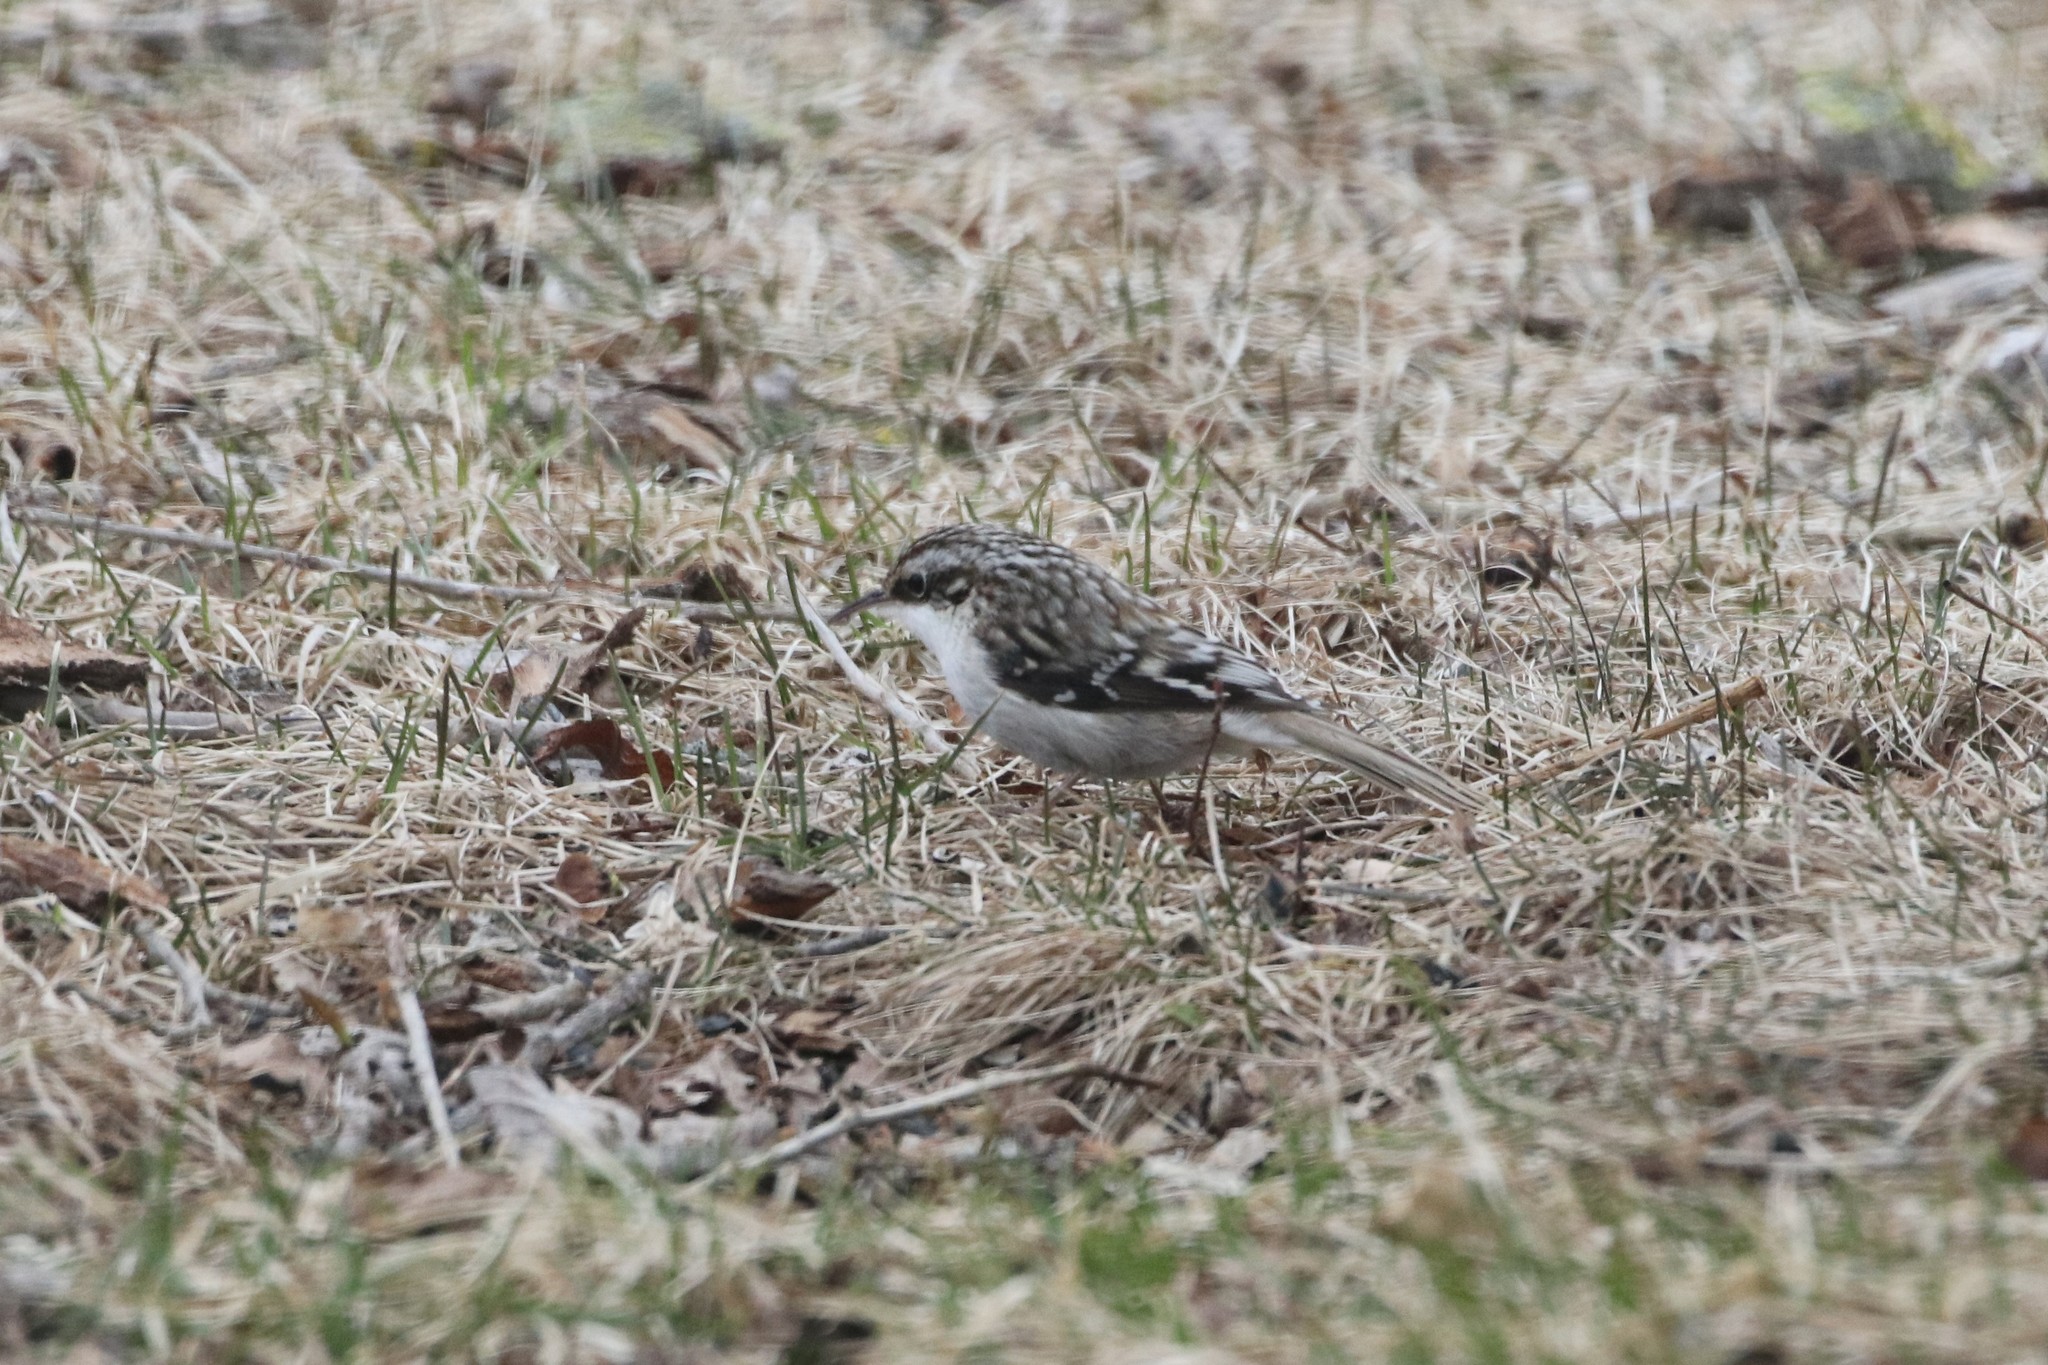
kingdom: Animalia
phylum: Chordata
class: Aves
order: Passeriformes
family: Certhiidae
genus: Certhia
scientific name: Certhia americana
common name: Brown creeper
